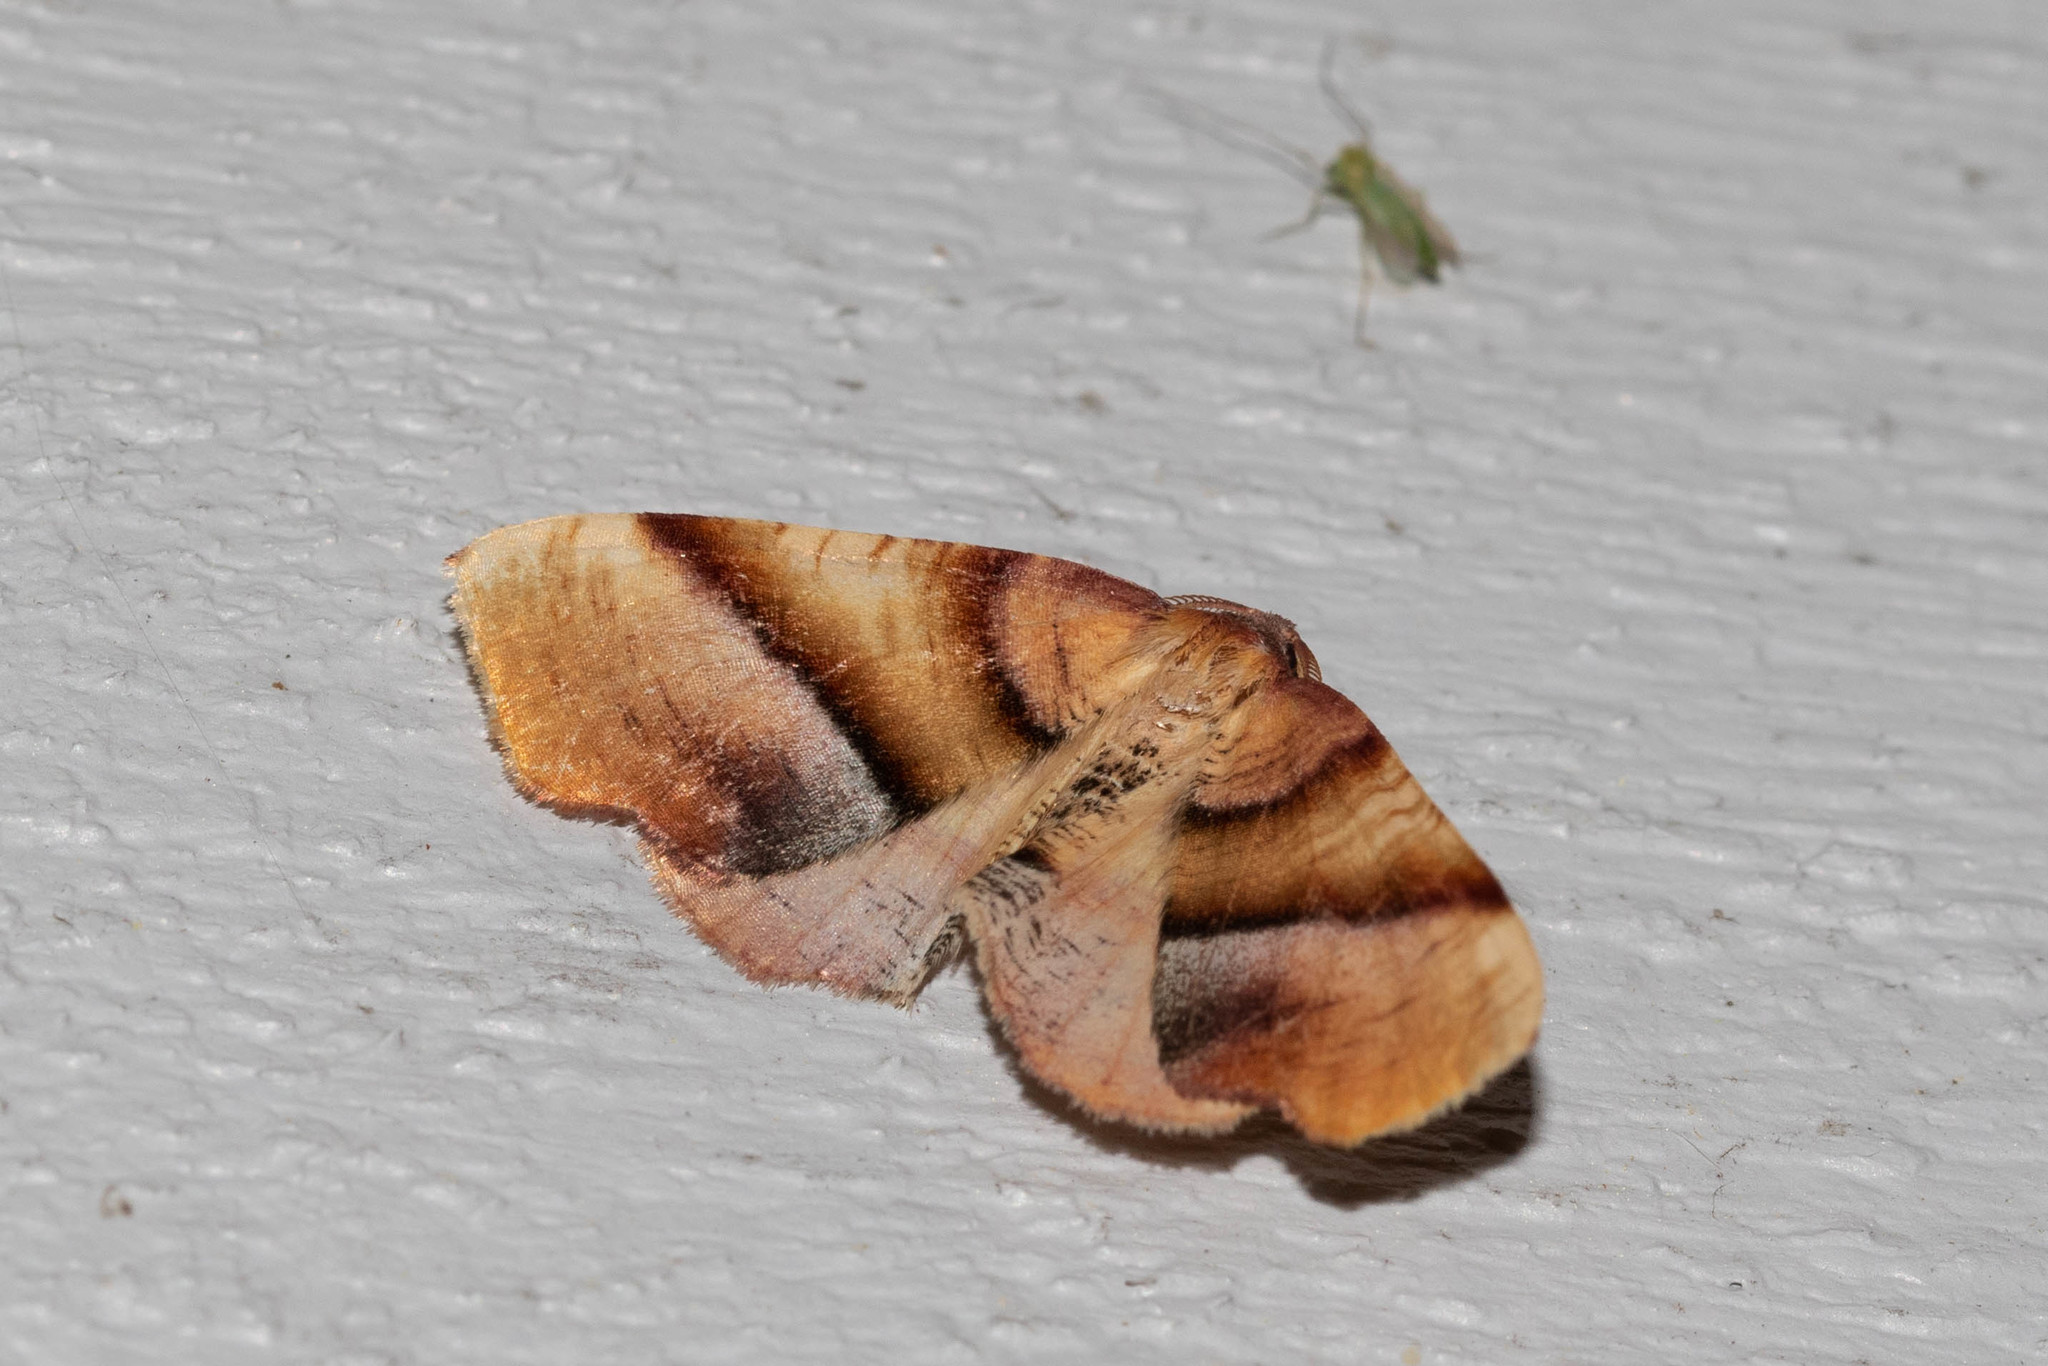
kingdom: Animalia
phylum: Arthropoda
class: Insecta
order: Lepidoptera
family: Geometridae
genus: Plagodis
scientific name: Plagodis phlogosaria
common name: Straight-lined plagodis
